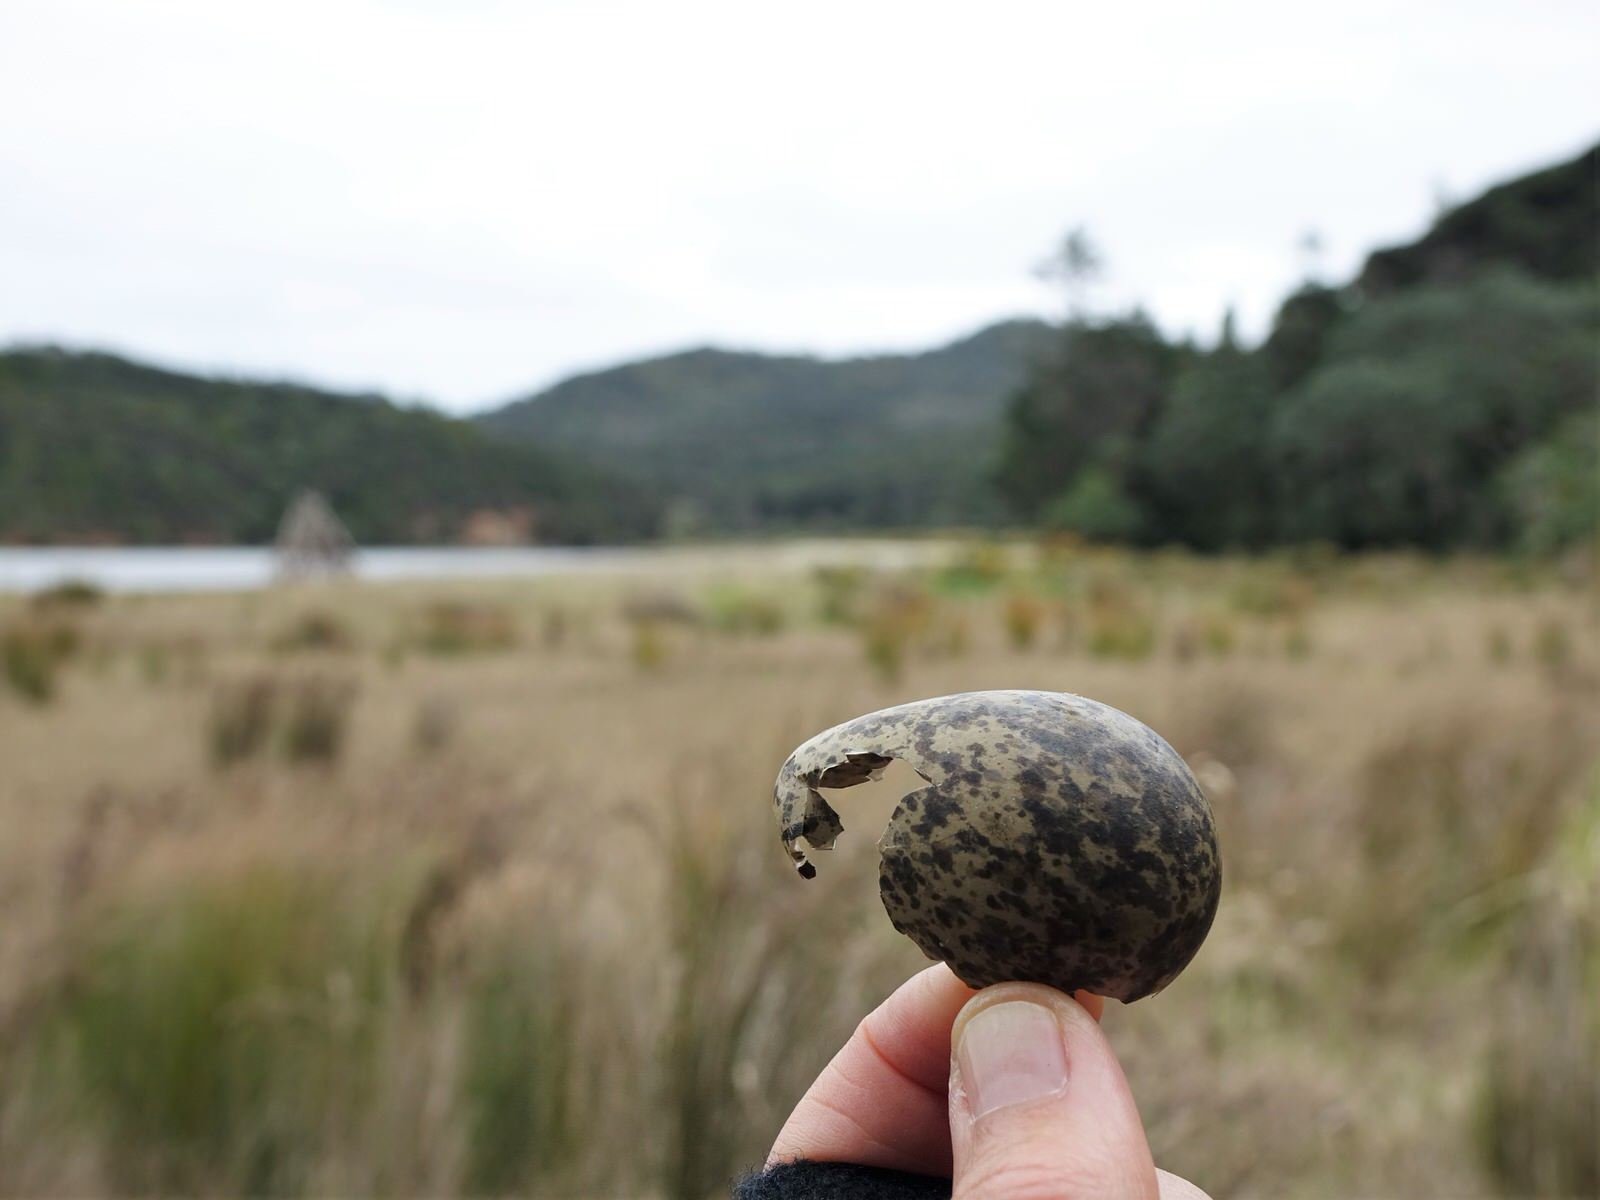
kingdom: Animalia
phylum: Chordata
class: Aves
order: Charadriiformes
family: Charadriidae
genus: Vanellus
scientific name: Vanellus miles
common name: Masked lapwing
